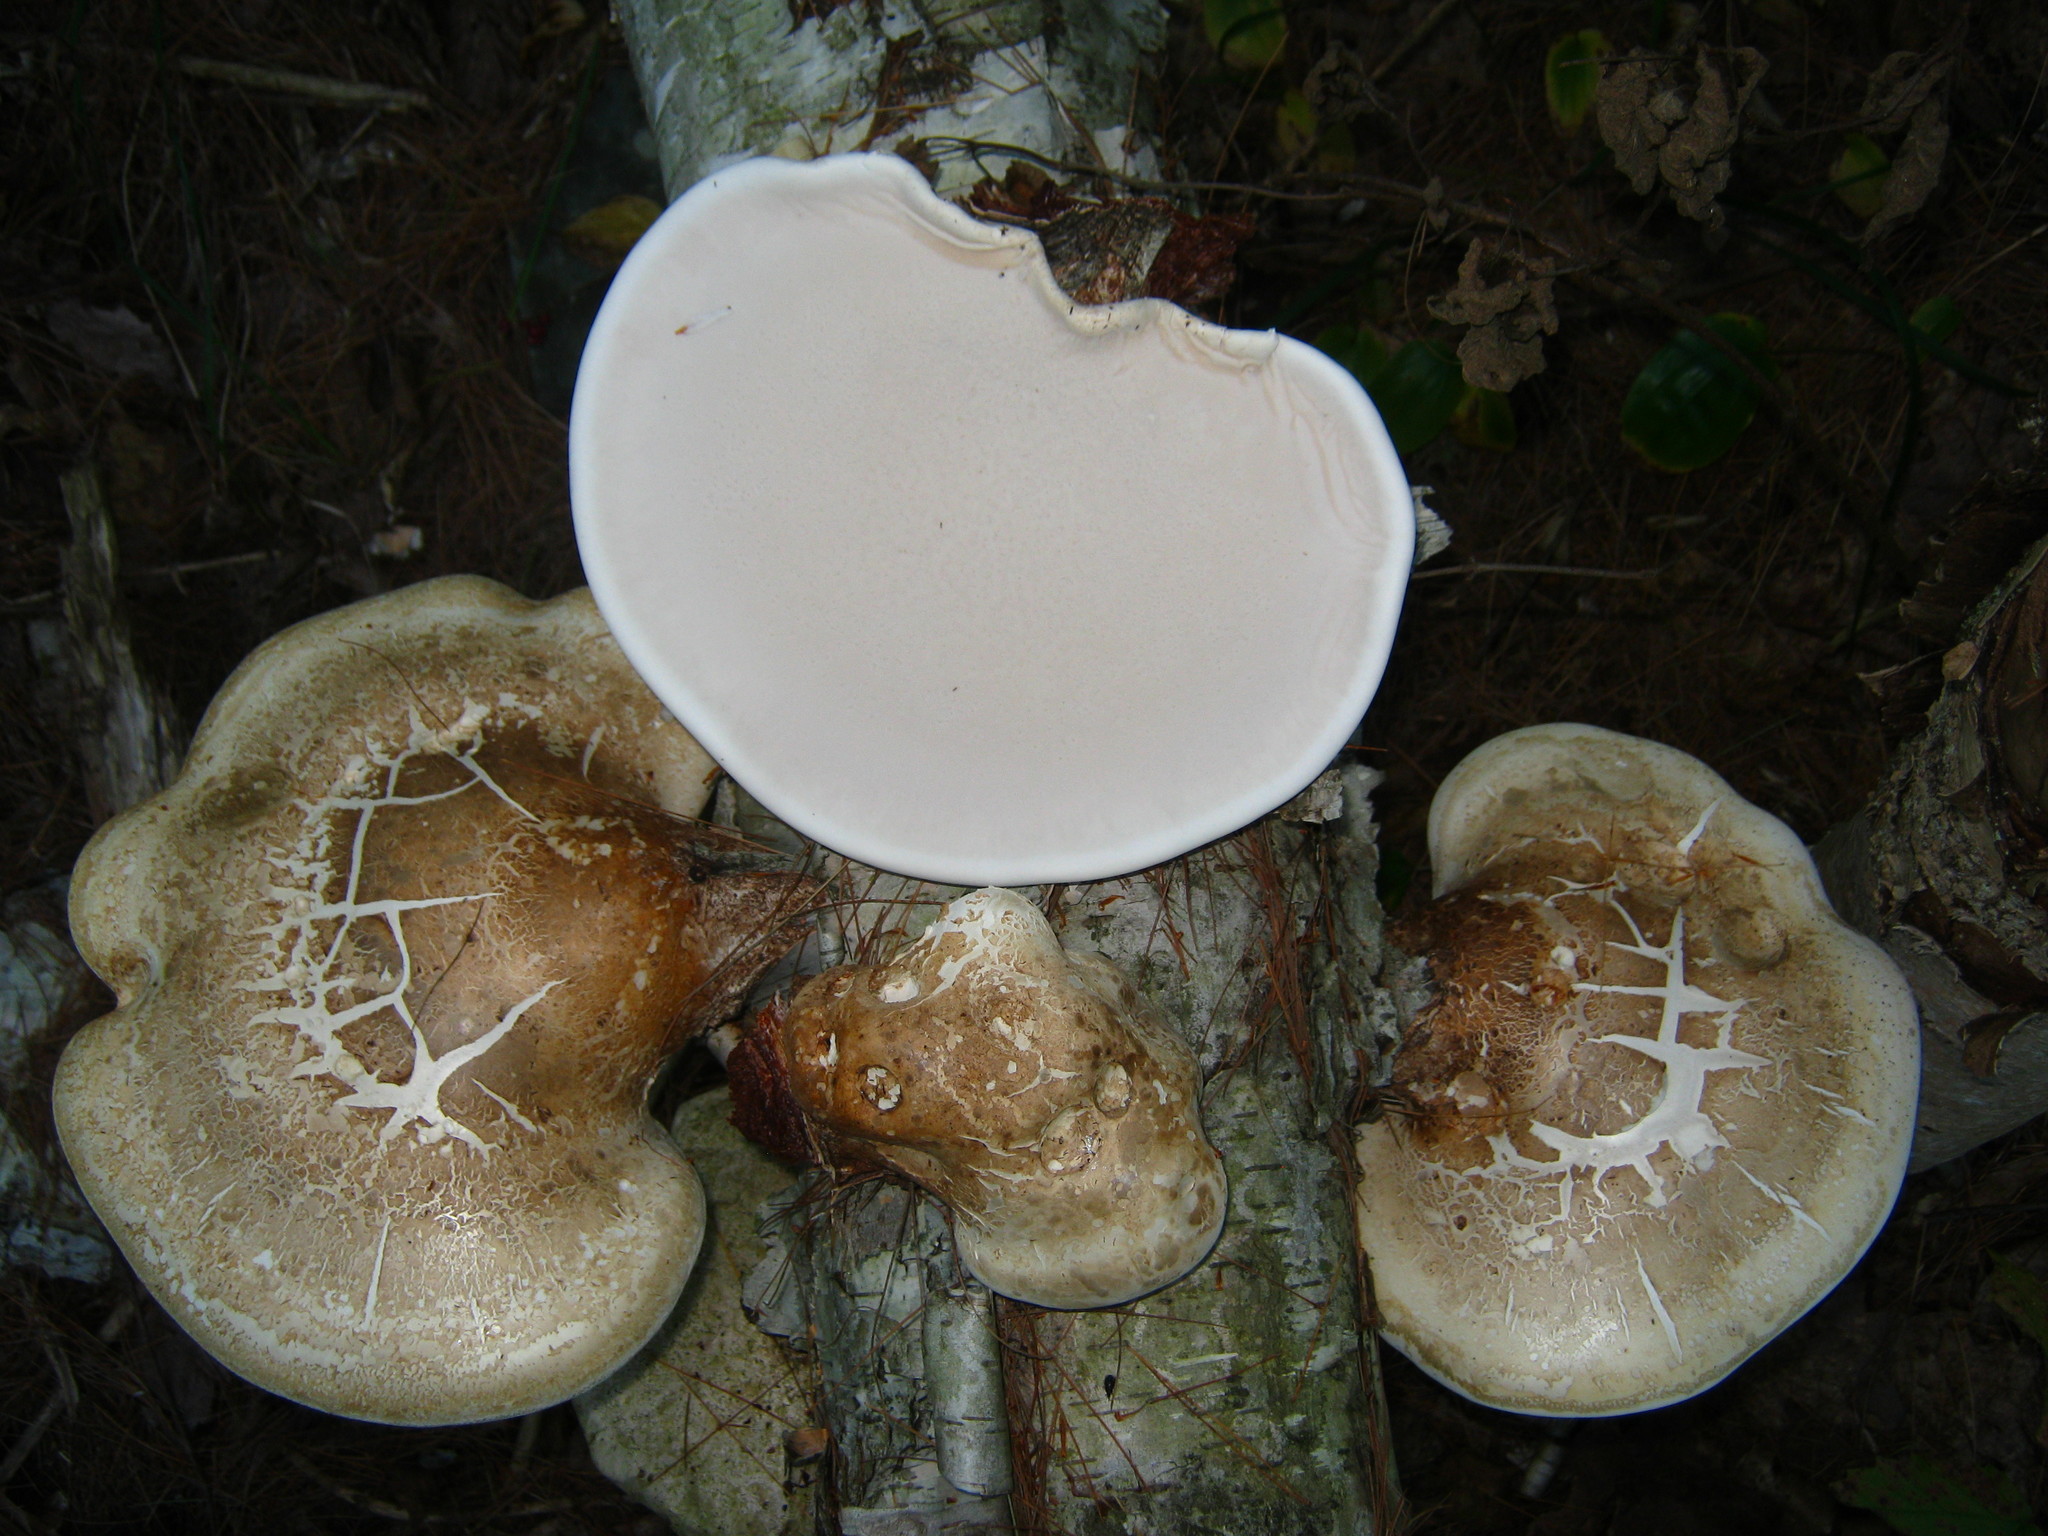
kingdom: Fungi
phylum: Basidiomycota
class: Agaricomycetes
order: Polyporales
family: Fomitopsidaceae
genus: Fomitopsis
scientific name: Fomitopsis betulina
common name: Birch polypore
